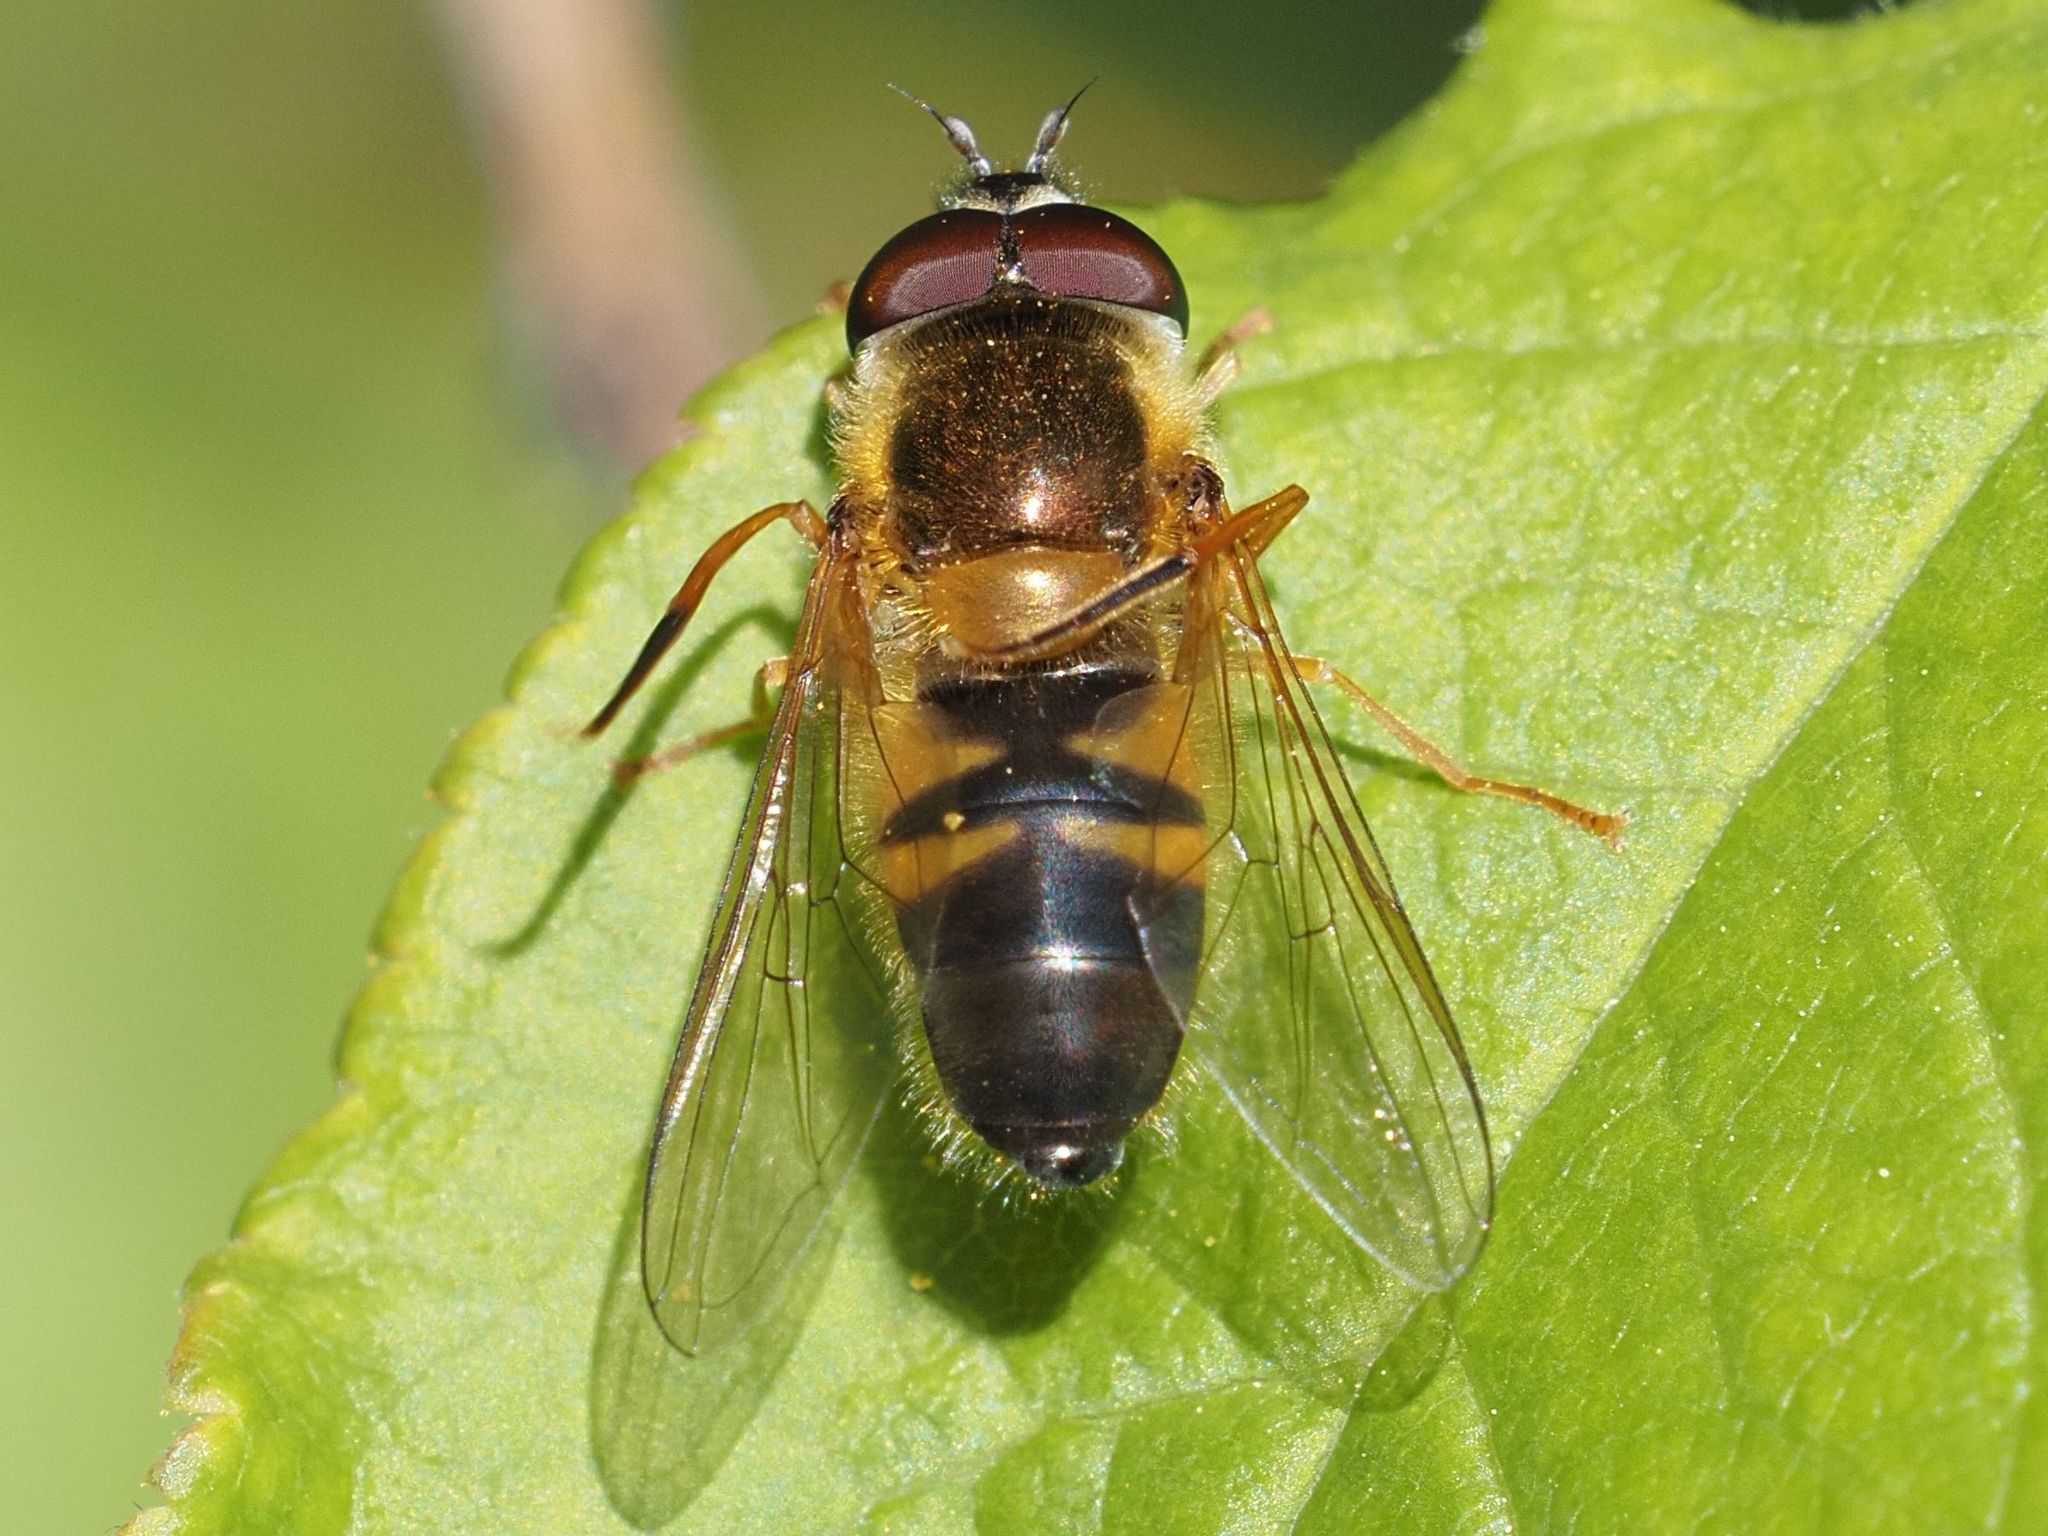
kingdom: Animalia
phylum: Arthropoda
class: Insecta
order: Diptera
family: Syrphidae
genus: Epistrophe
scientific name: Epistrophe eligans
